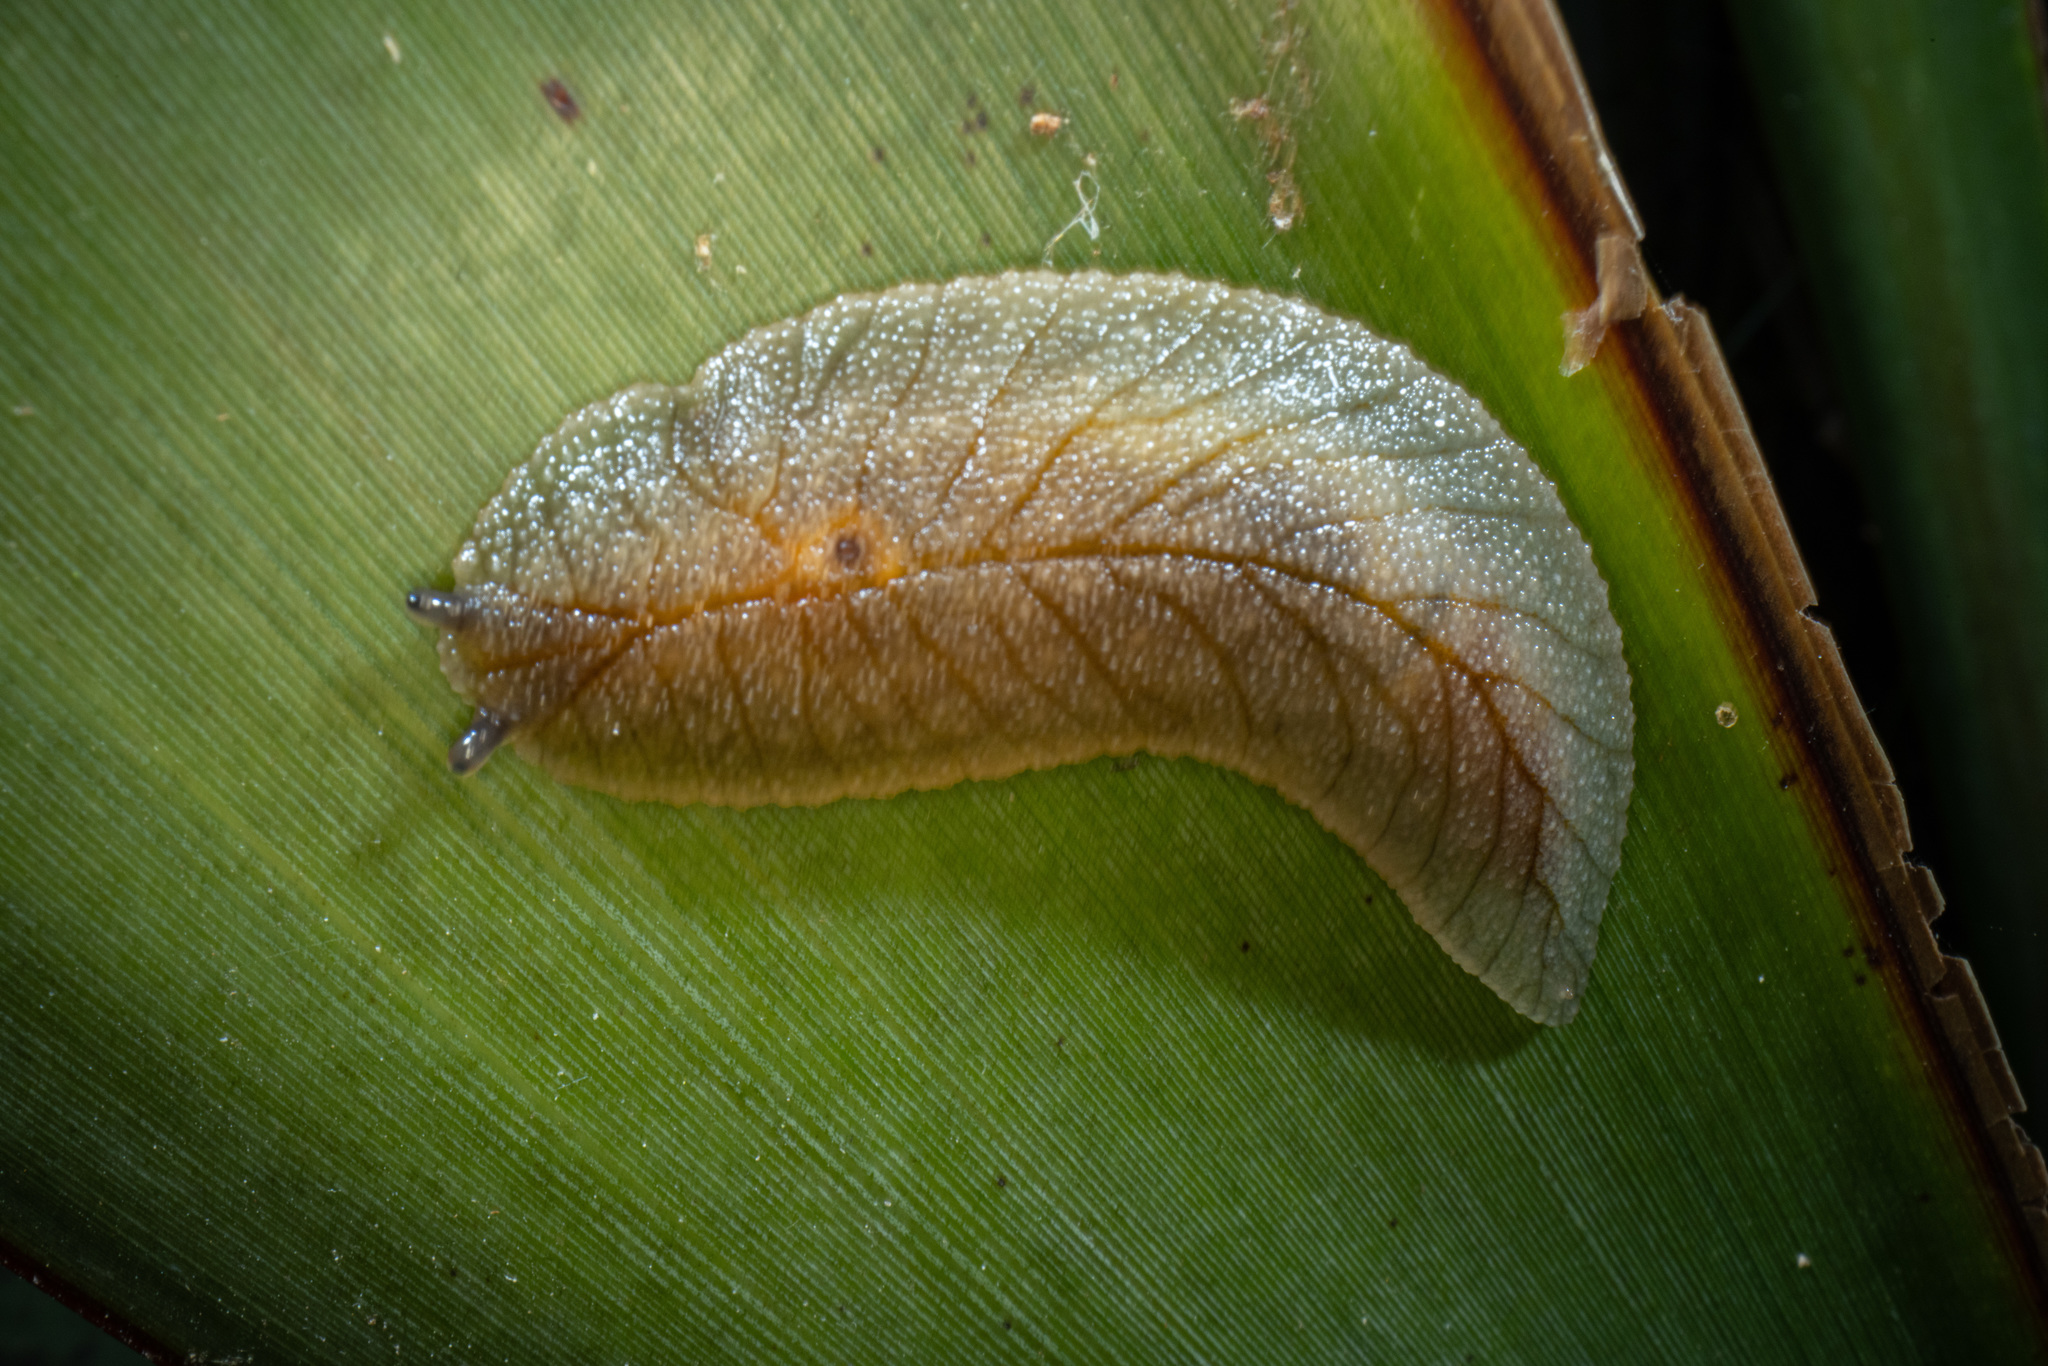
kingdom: Animalia
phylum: Mollusca
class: Gastropoda
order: Stylommatophora
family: Athoracophoridae
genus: Athoracophorus
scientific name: Athoracophorus
